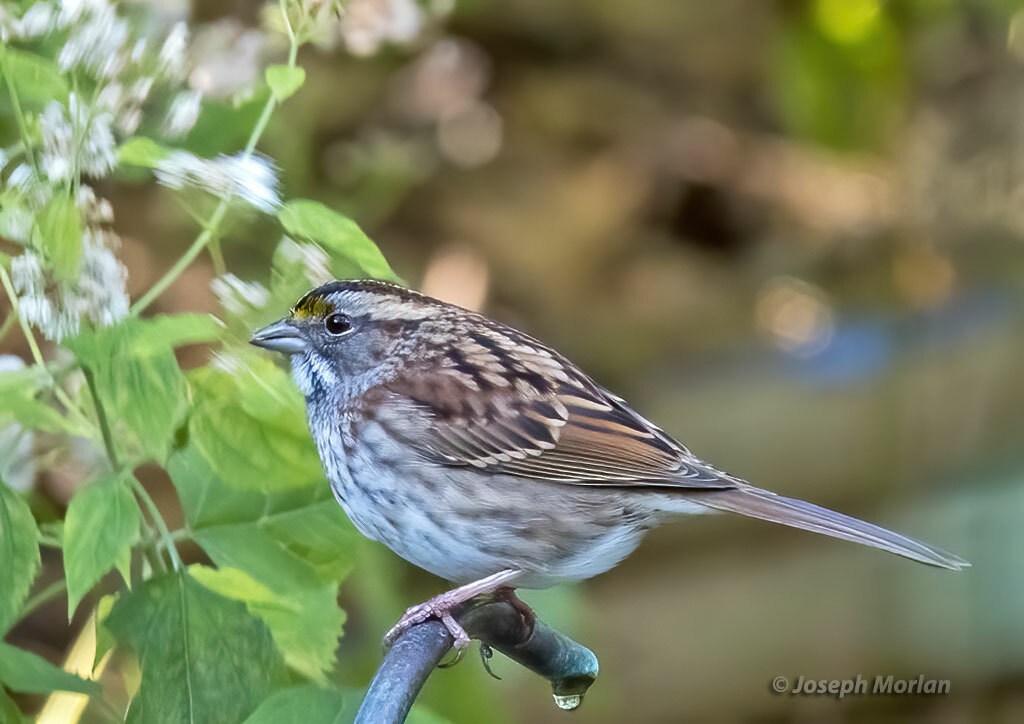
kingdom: Animalia
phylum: Chordata
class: Aves
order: Passeriformes
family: Passerellidae
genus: Zonotrichia
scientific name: Zonotrichia albicollis
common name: White-throated sparrow
